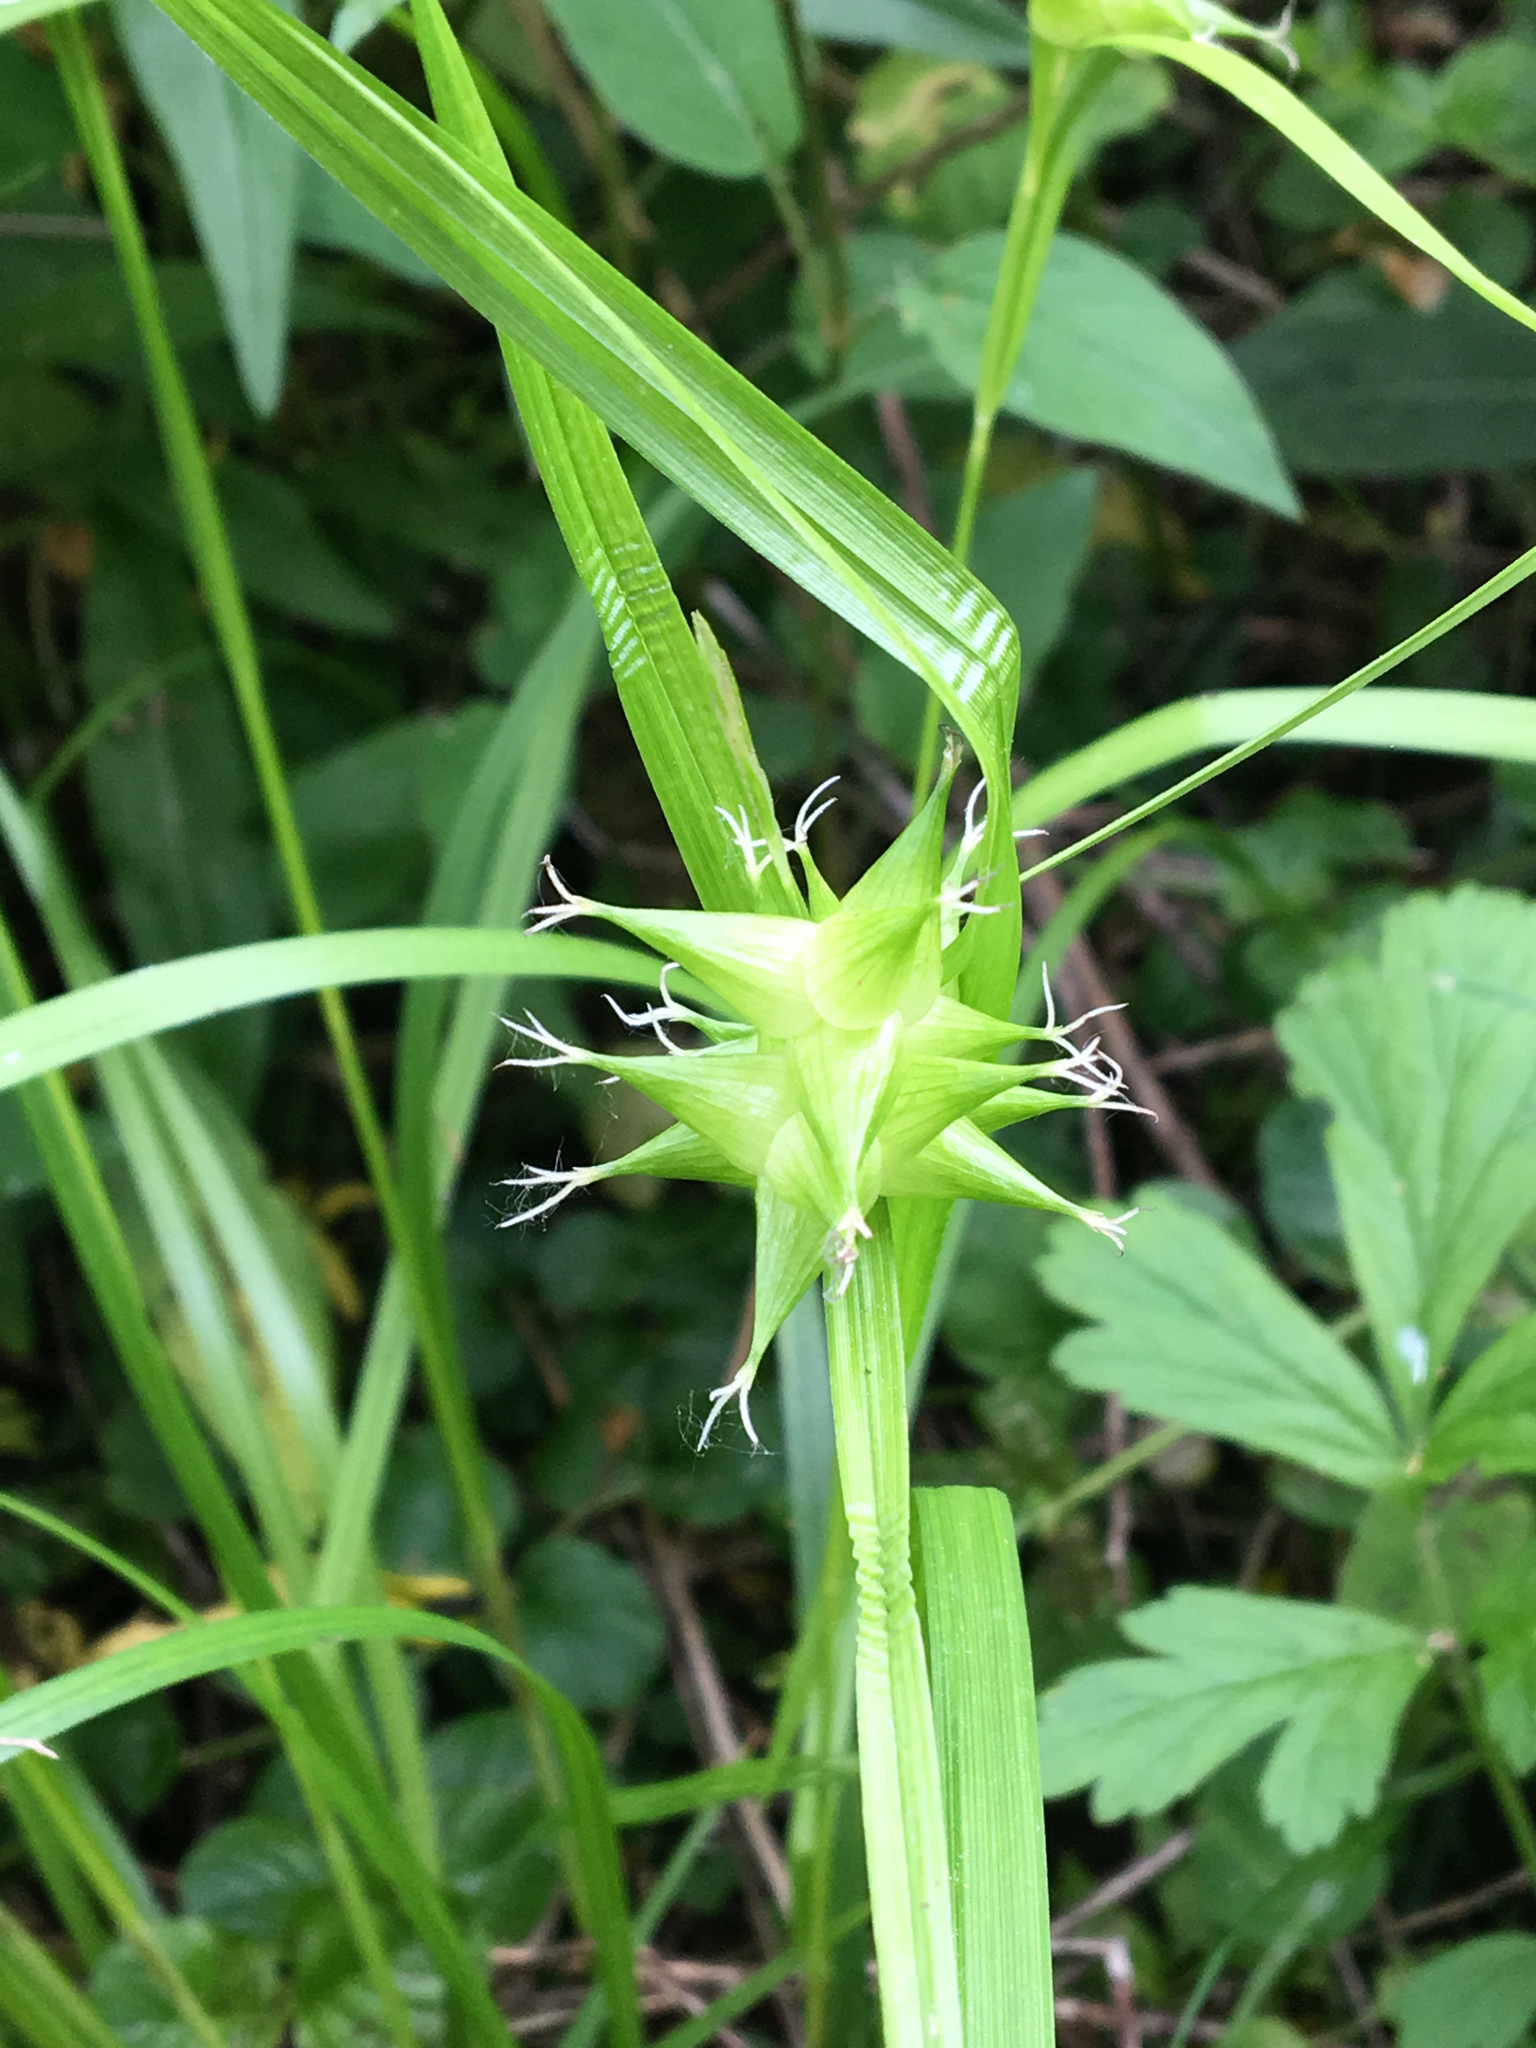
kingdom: Plantae
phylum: Tracheophyta
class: Liliopsida
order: Poales
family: Cyperaceae
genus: Carex
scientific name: Carex intumescens
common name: Greater bladder sedge
